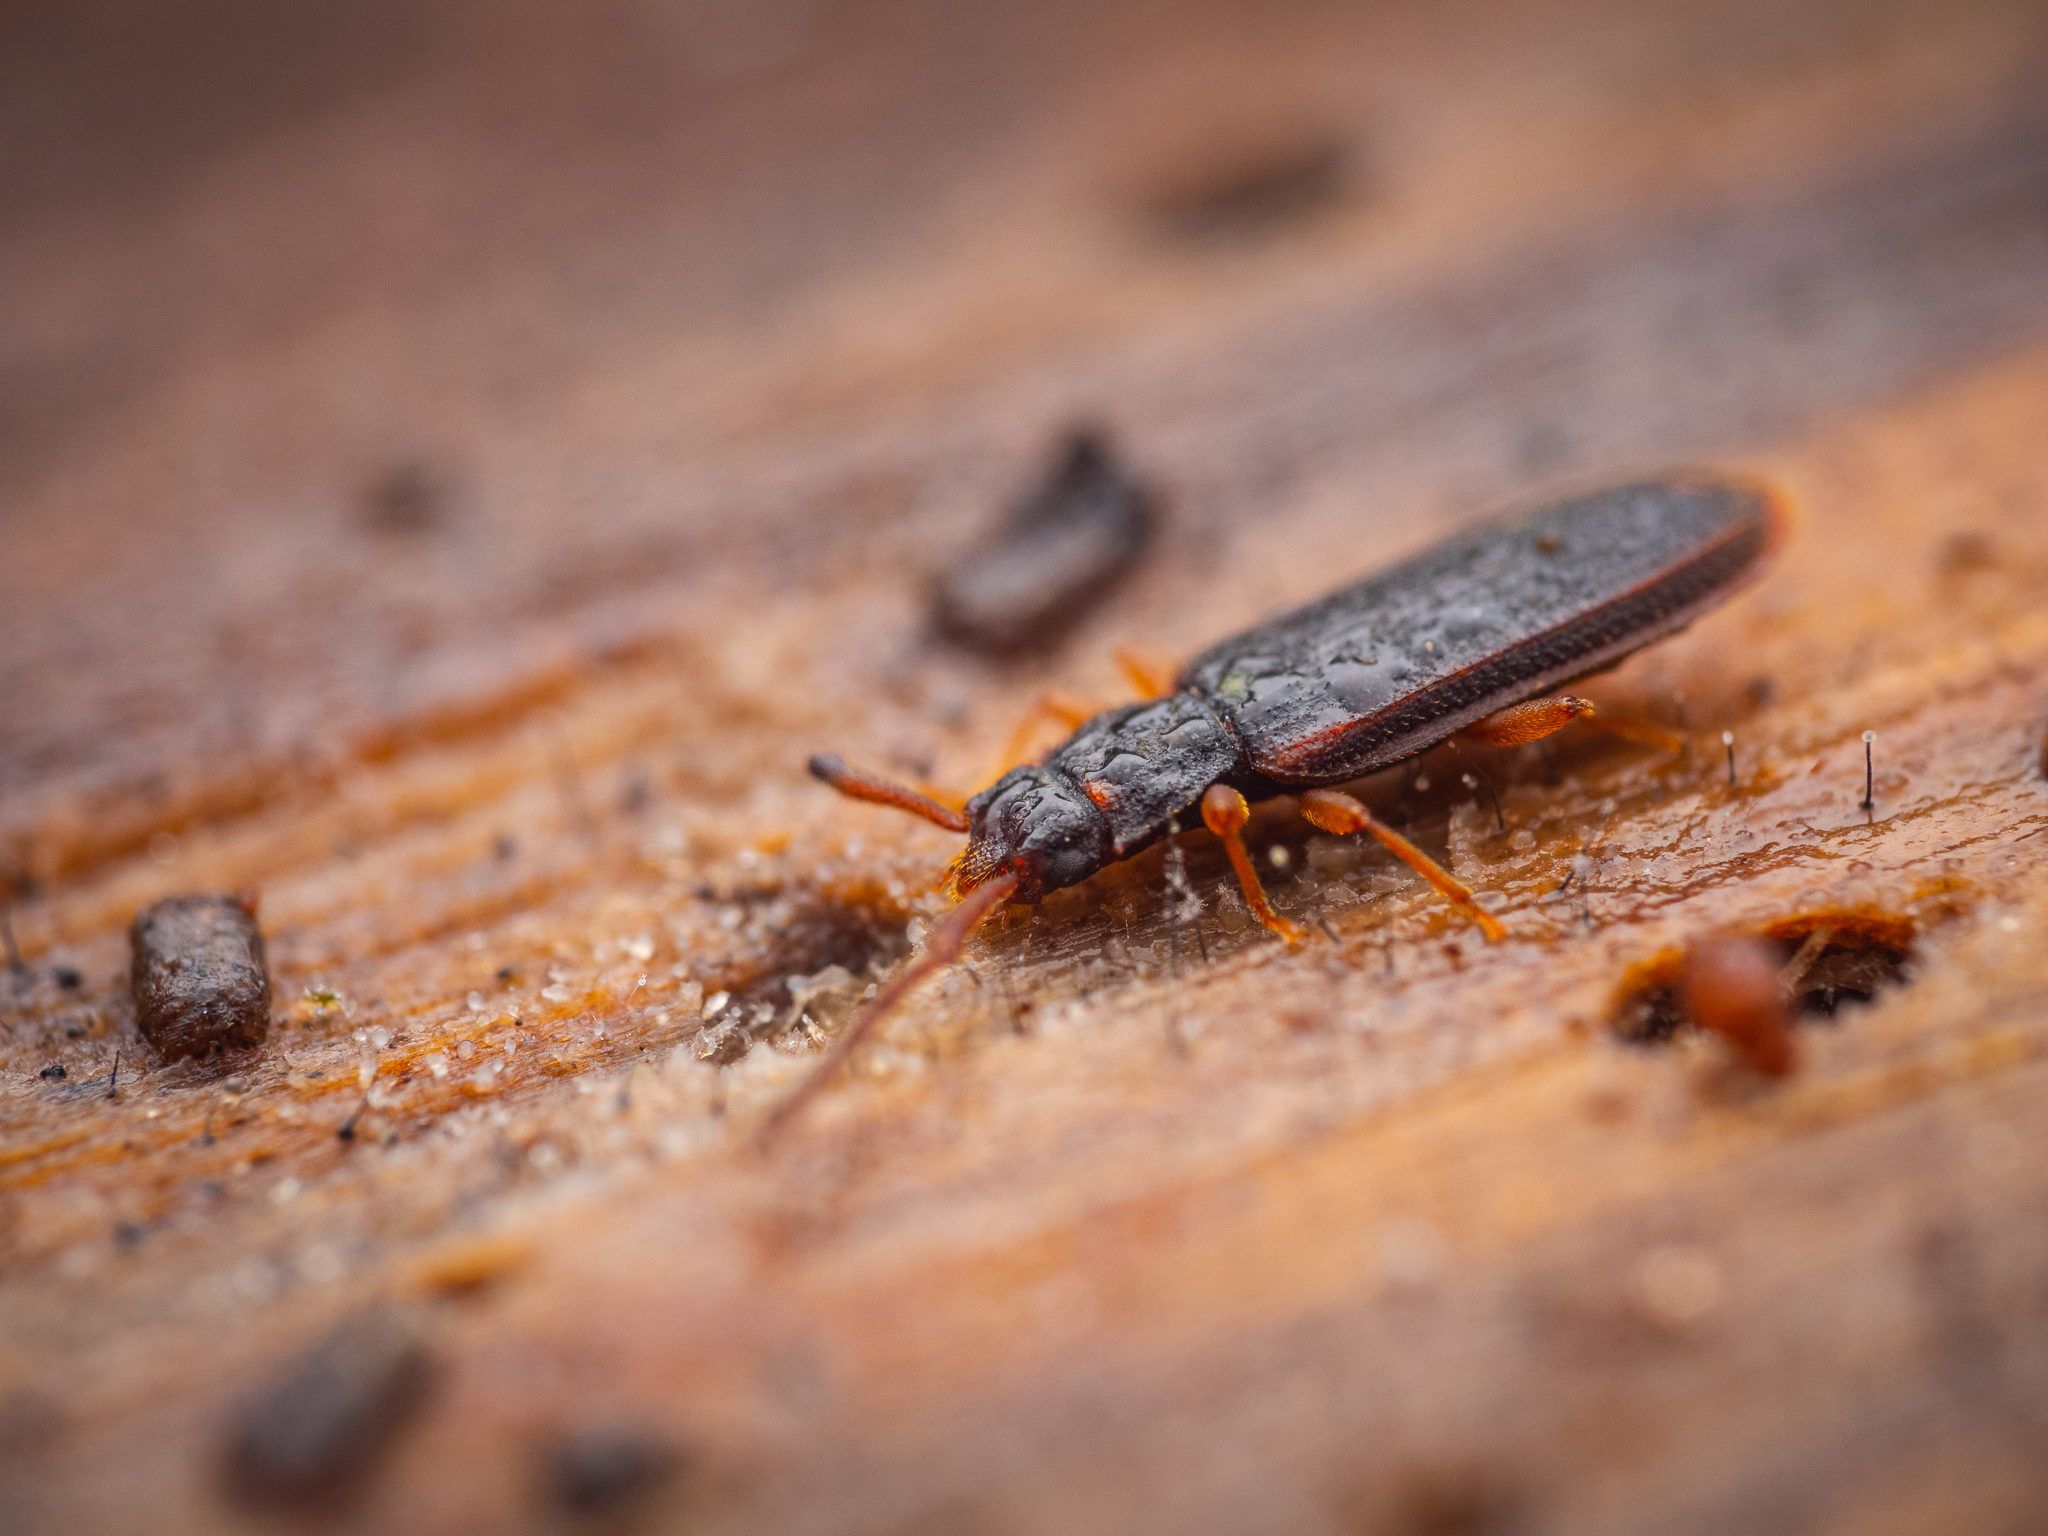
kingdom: Animalia
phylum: Arthropoda
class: Insecta
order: Coleoptera
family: Silvanidae
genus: Uleiota
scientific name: Uleiota planatus
